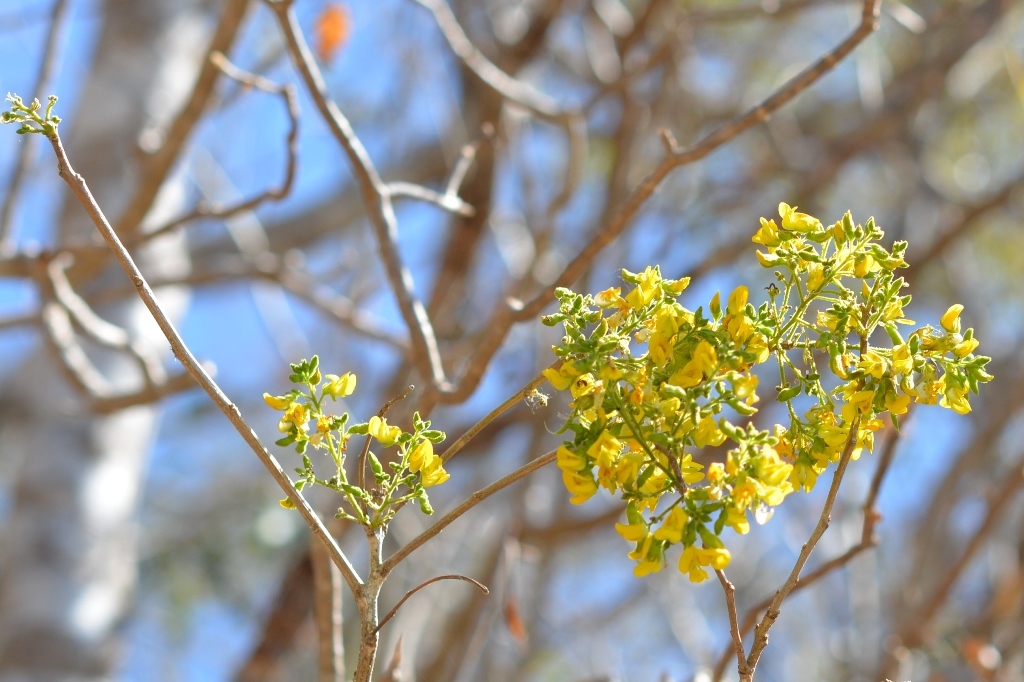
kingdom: Plantae
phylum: Tracheophyta
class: Magnoliopsida
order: Fabales
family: Fabaceae
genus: Diphysa
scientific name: Diphysa floribunda
